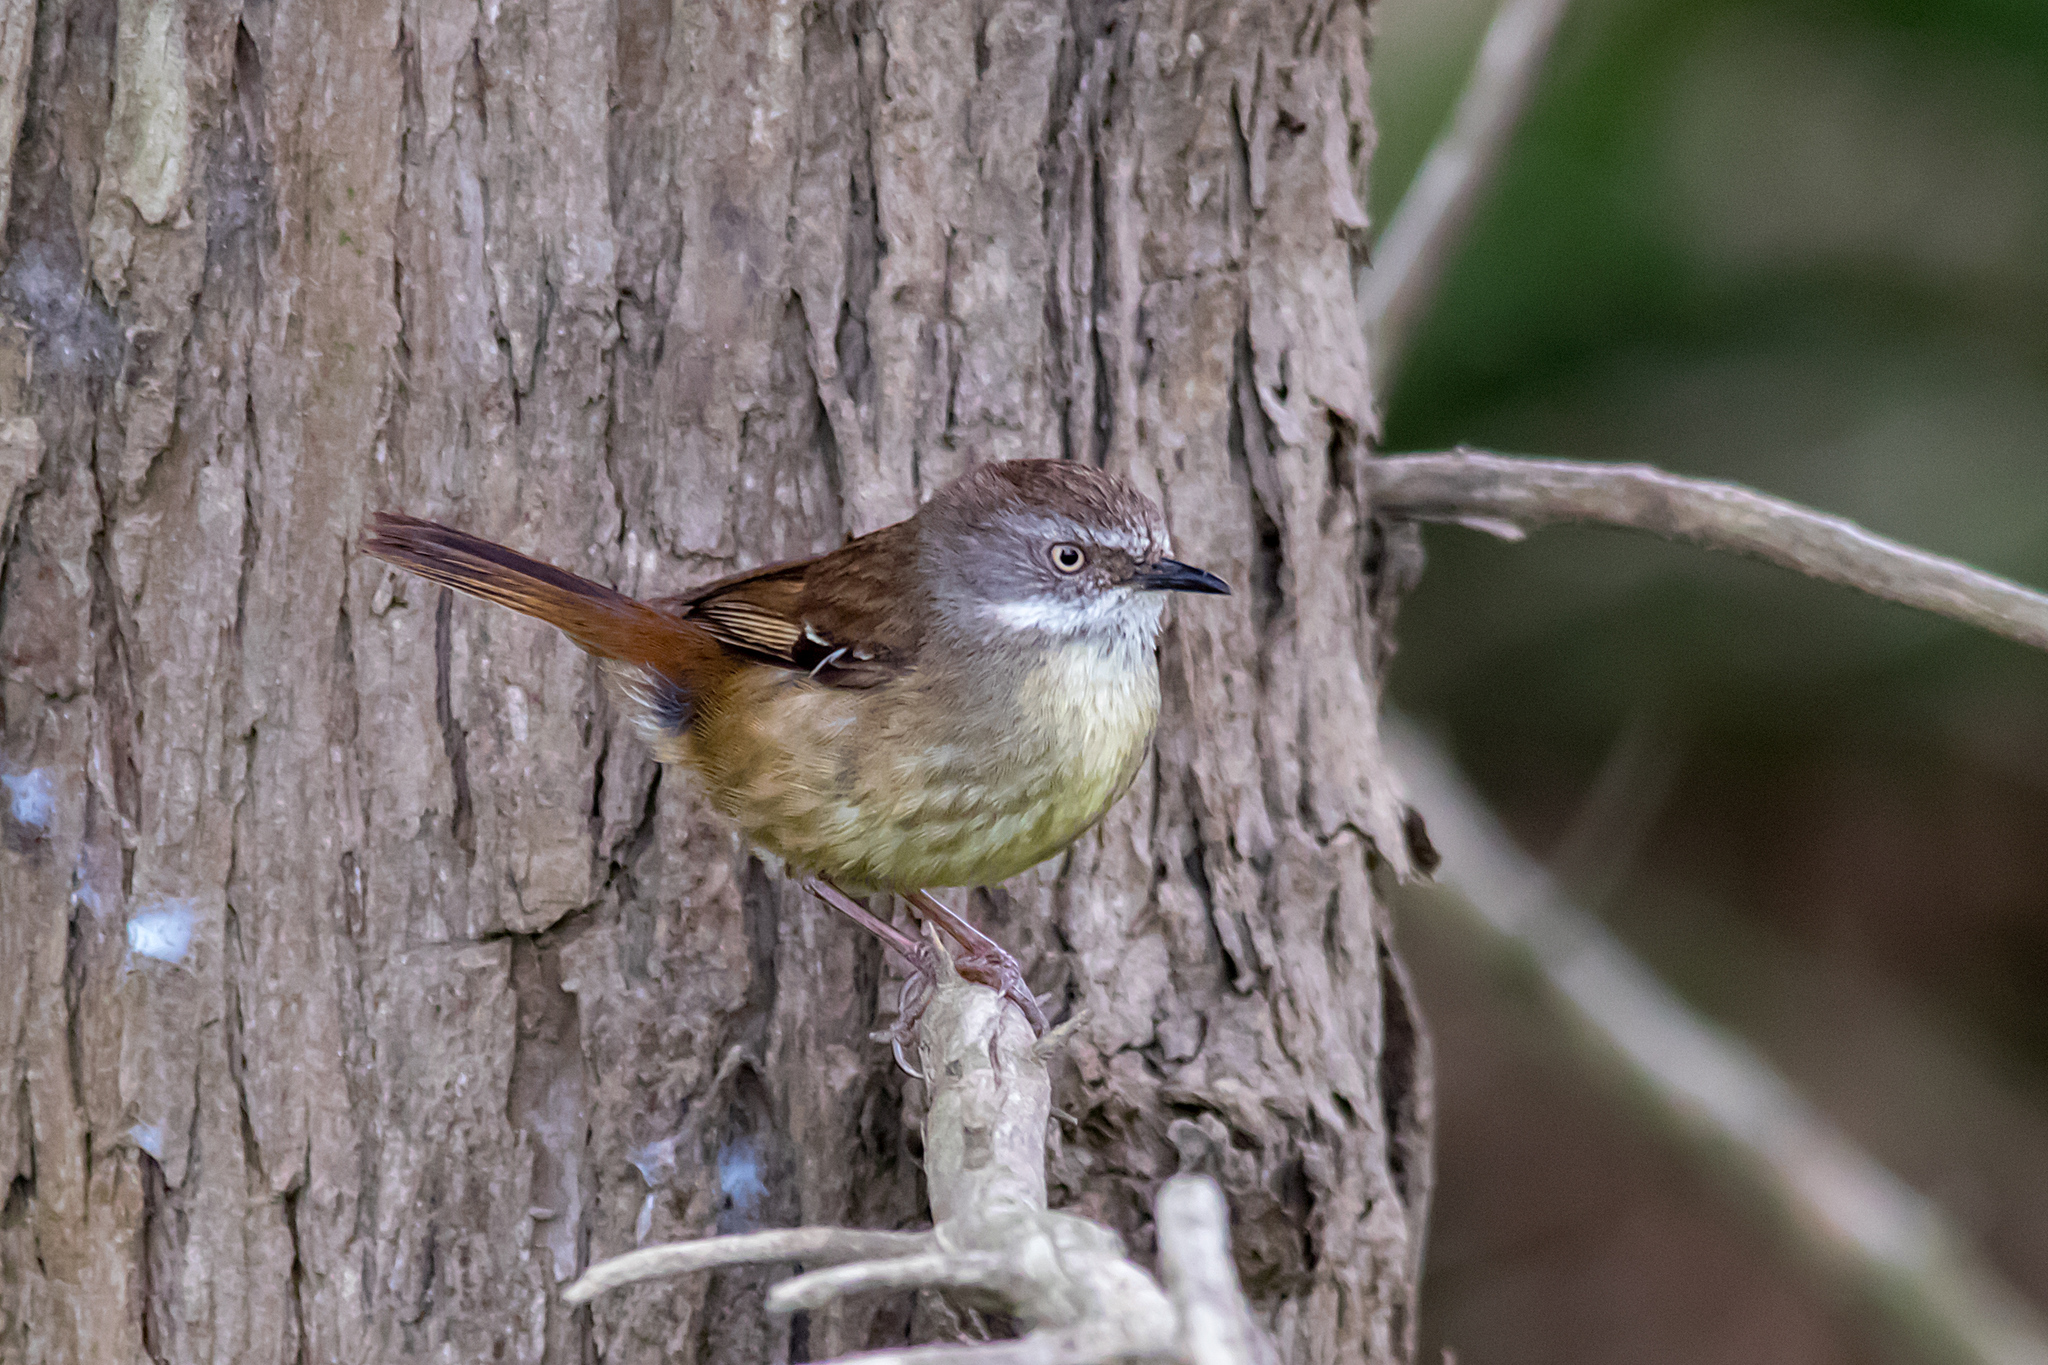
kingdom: Animalia
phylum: Chordata
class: Aves
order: Passeriformes
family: Acanthizidae
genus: Sericornis
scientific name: Sericornis frontalis
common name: White-browed scrubwren
